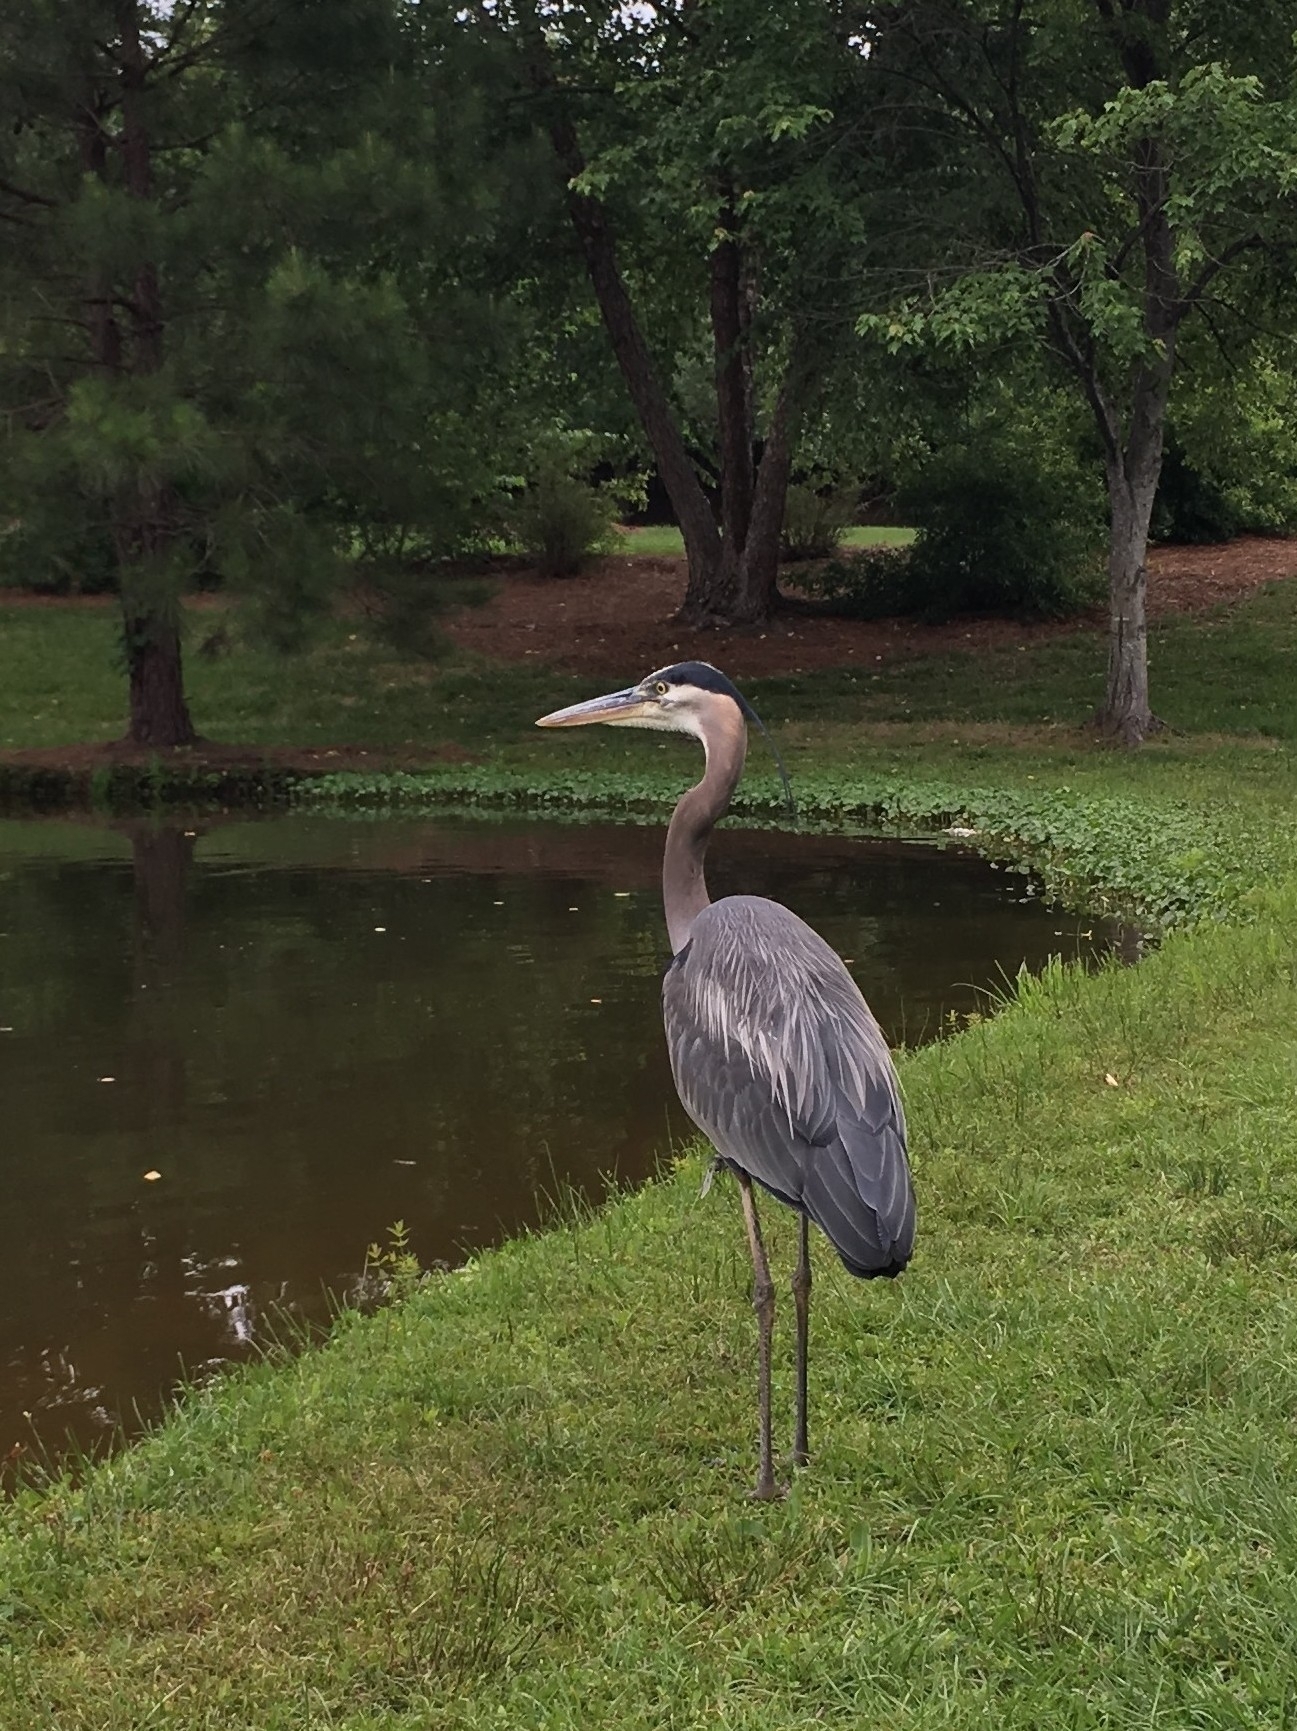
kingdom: Animalia
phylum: Chordata
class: Aves
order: Pelecaniformes
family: Ardeidae
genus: Ardea
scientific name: Ardea herodias
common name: Great blue heron
